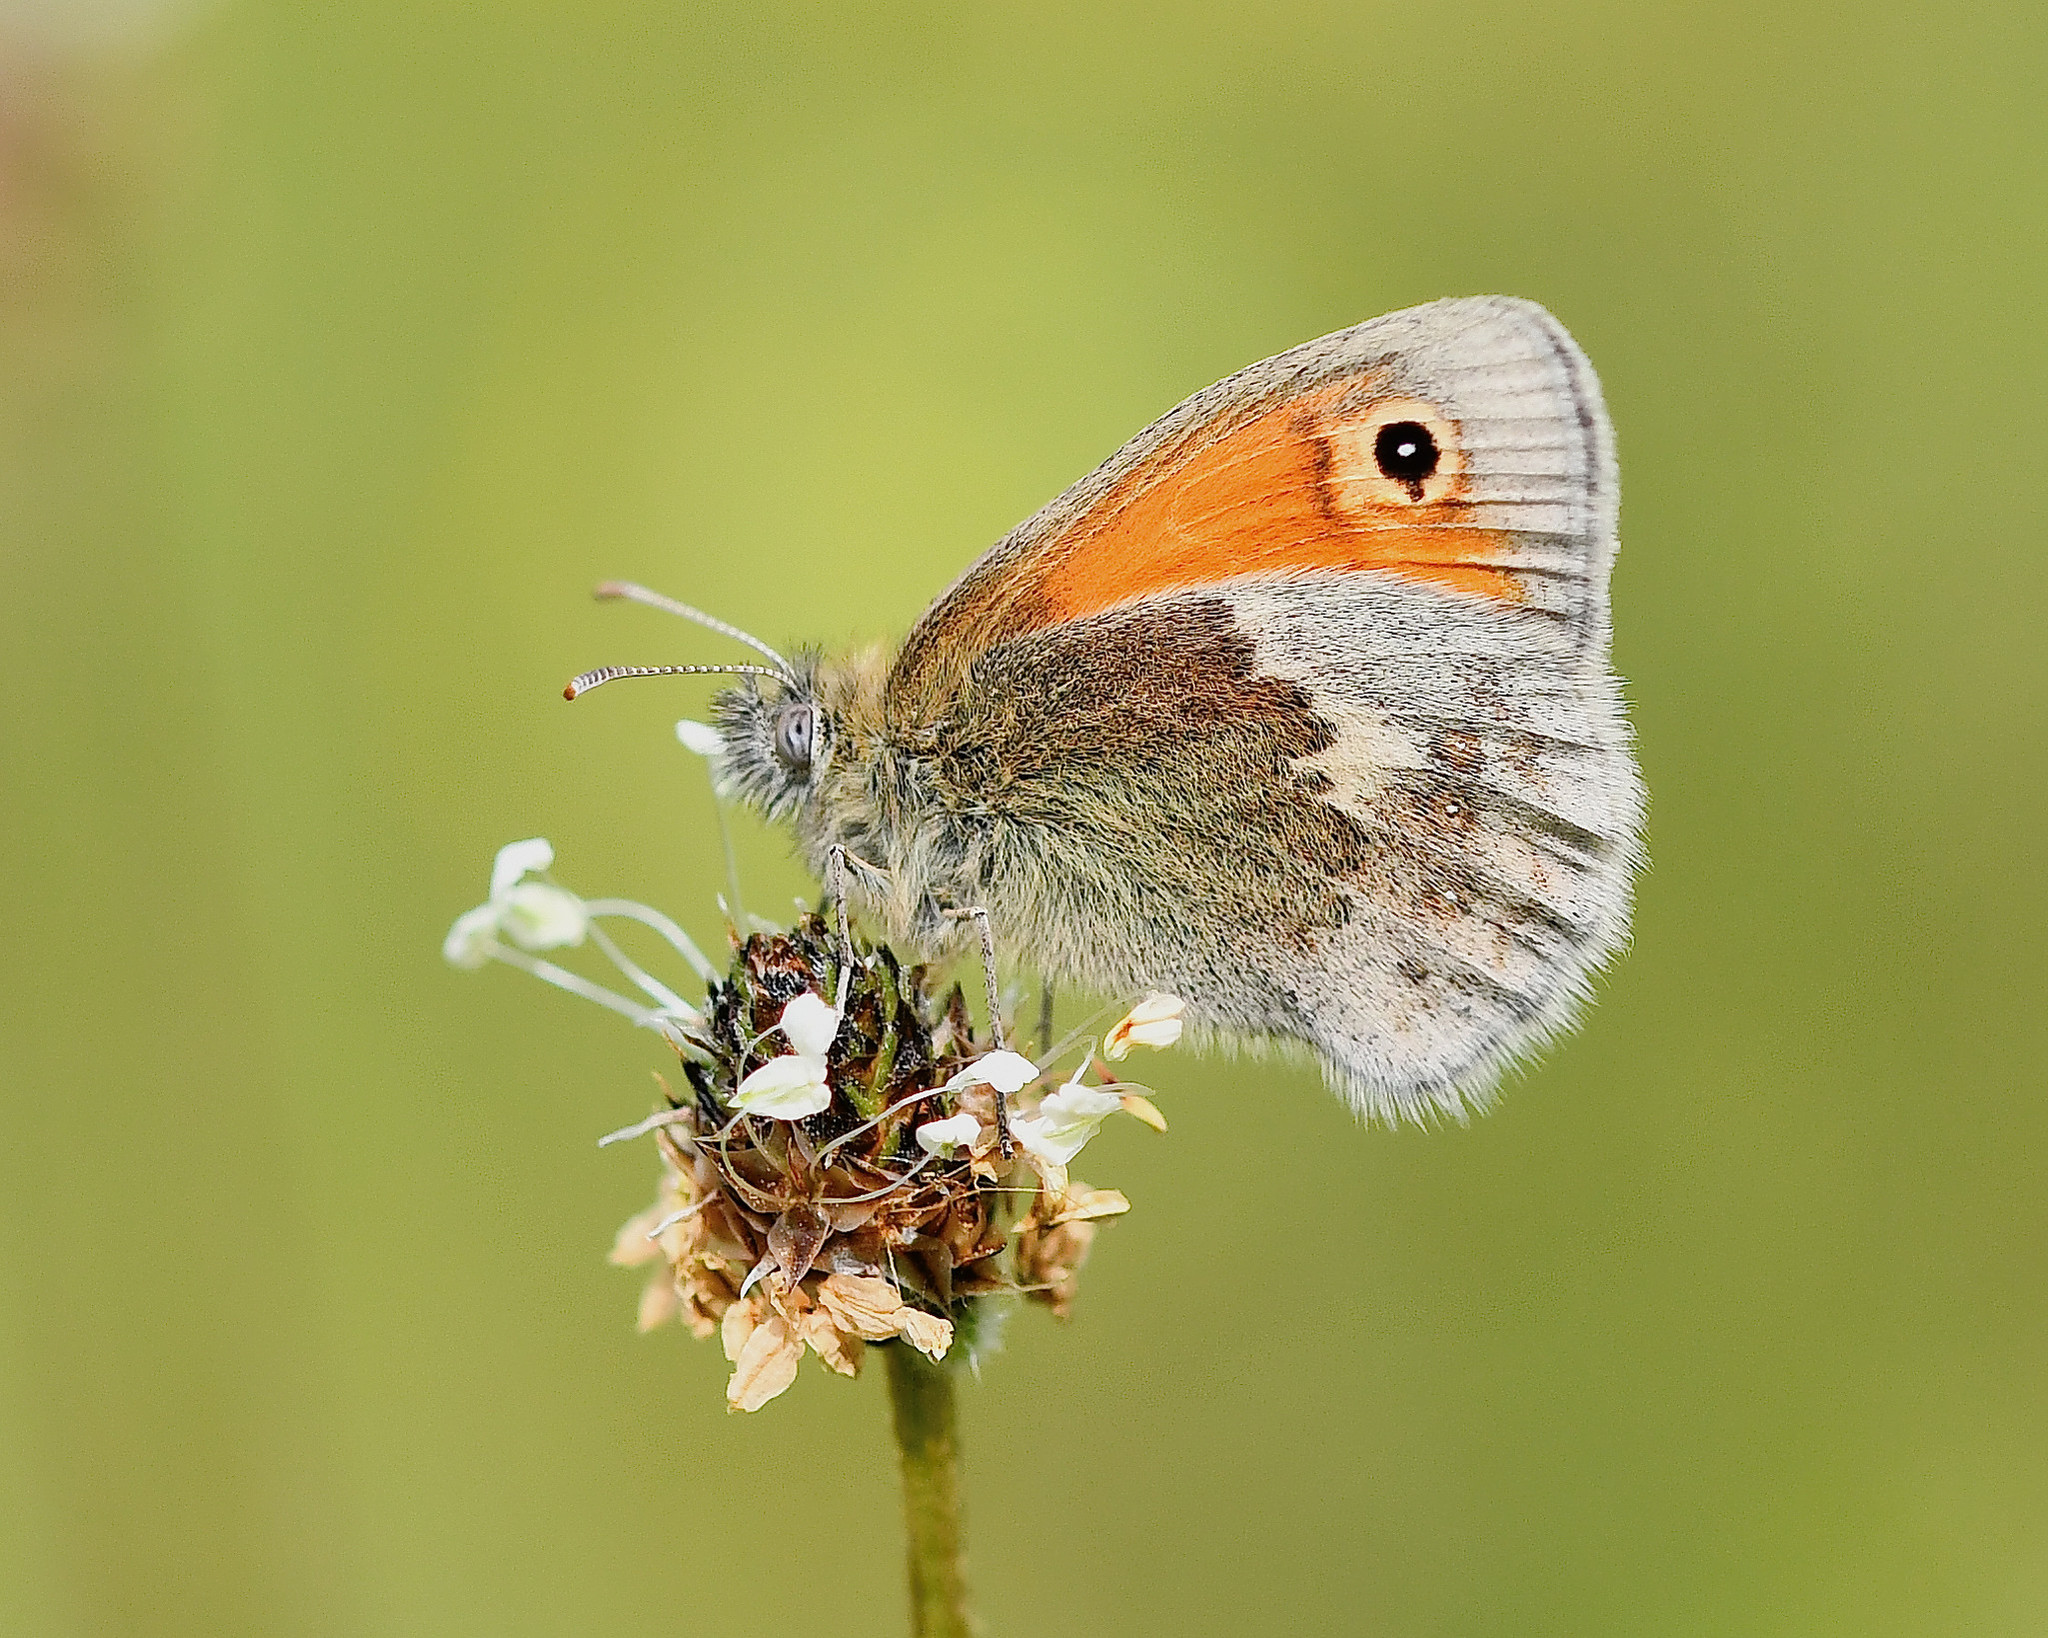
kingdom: Animalia
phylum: Arthropoda
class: Insecta
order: Lepidoptera
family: Nymphalidae
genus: Coenonympha
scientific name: Coenonympha pamphilus
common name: Small heath
